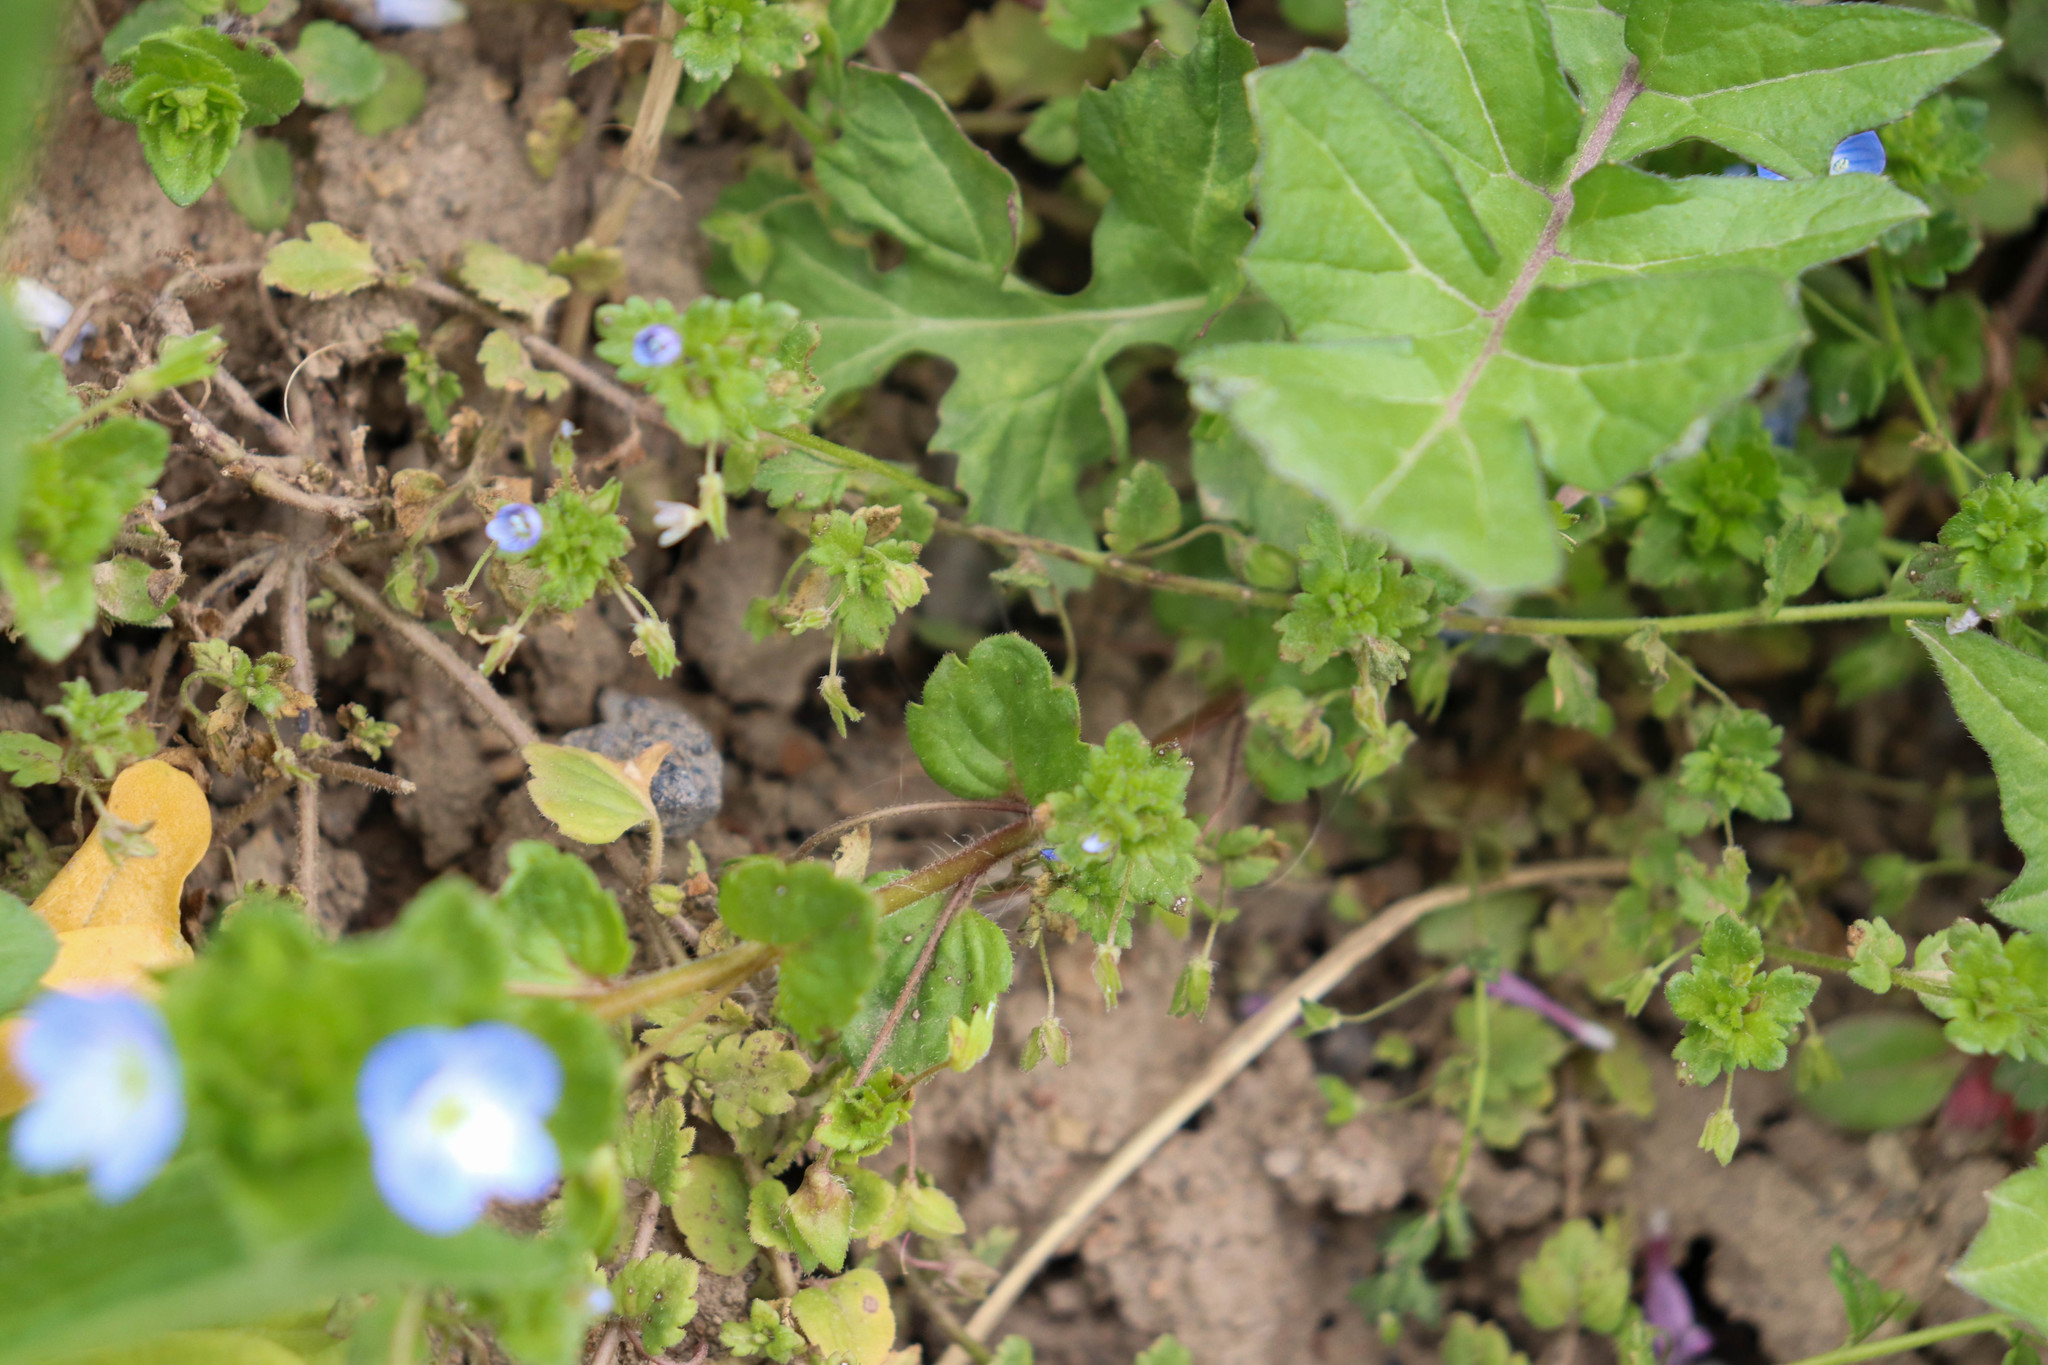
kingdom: Plantae
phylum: Tracheophyta
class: Magnoliopsida
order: Lamiales
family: Plantaginaceae
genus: Veronica
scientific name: Veronica persica
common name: Common field-speedwell
